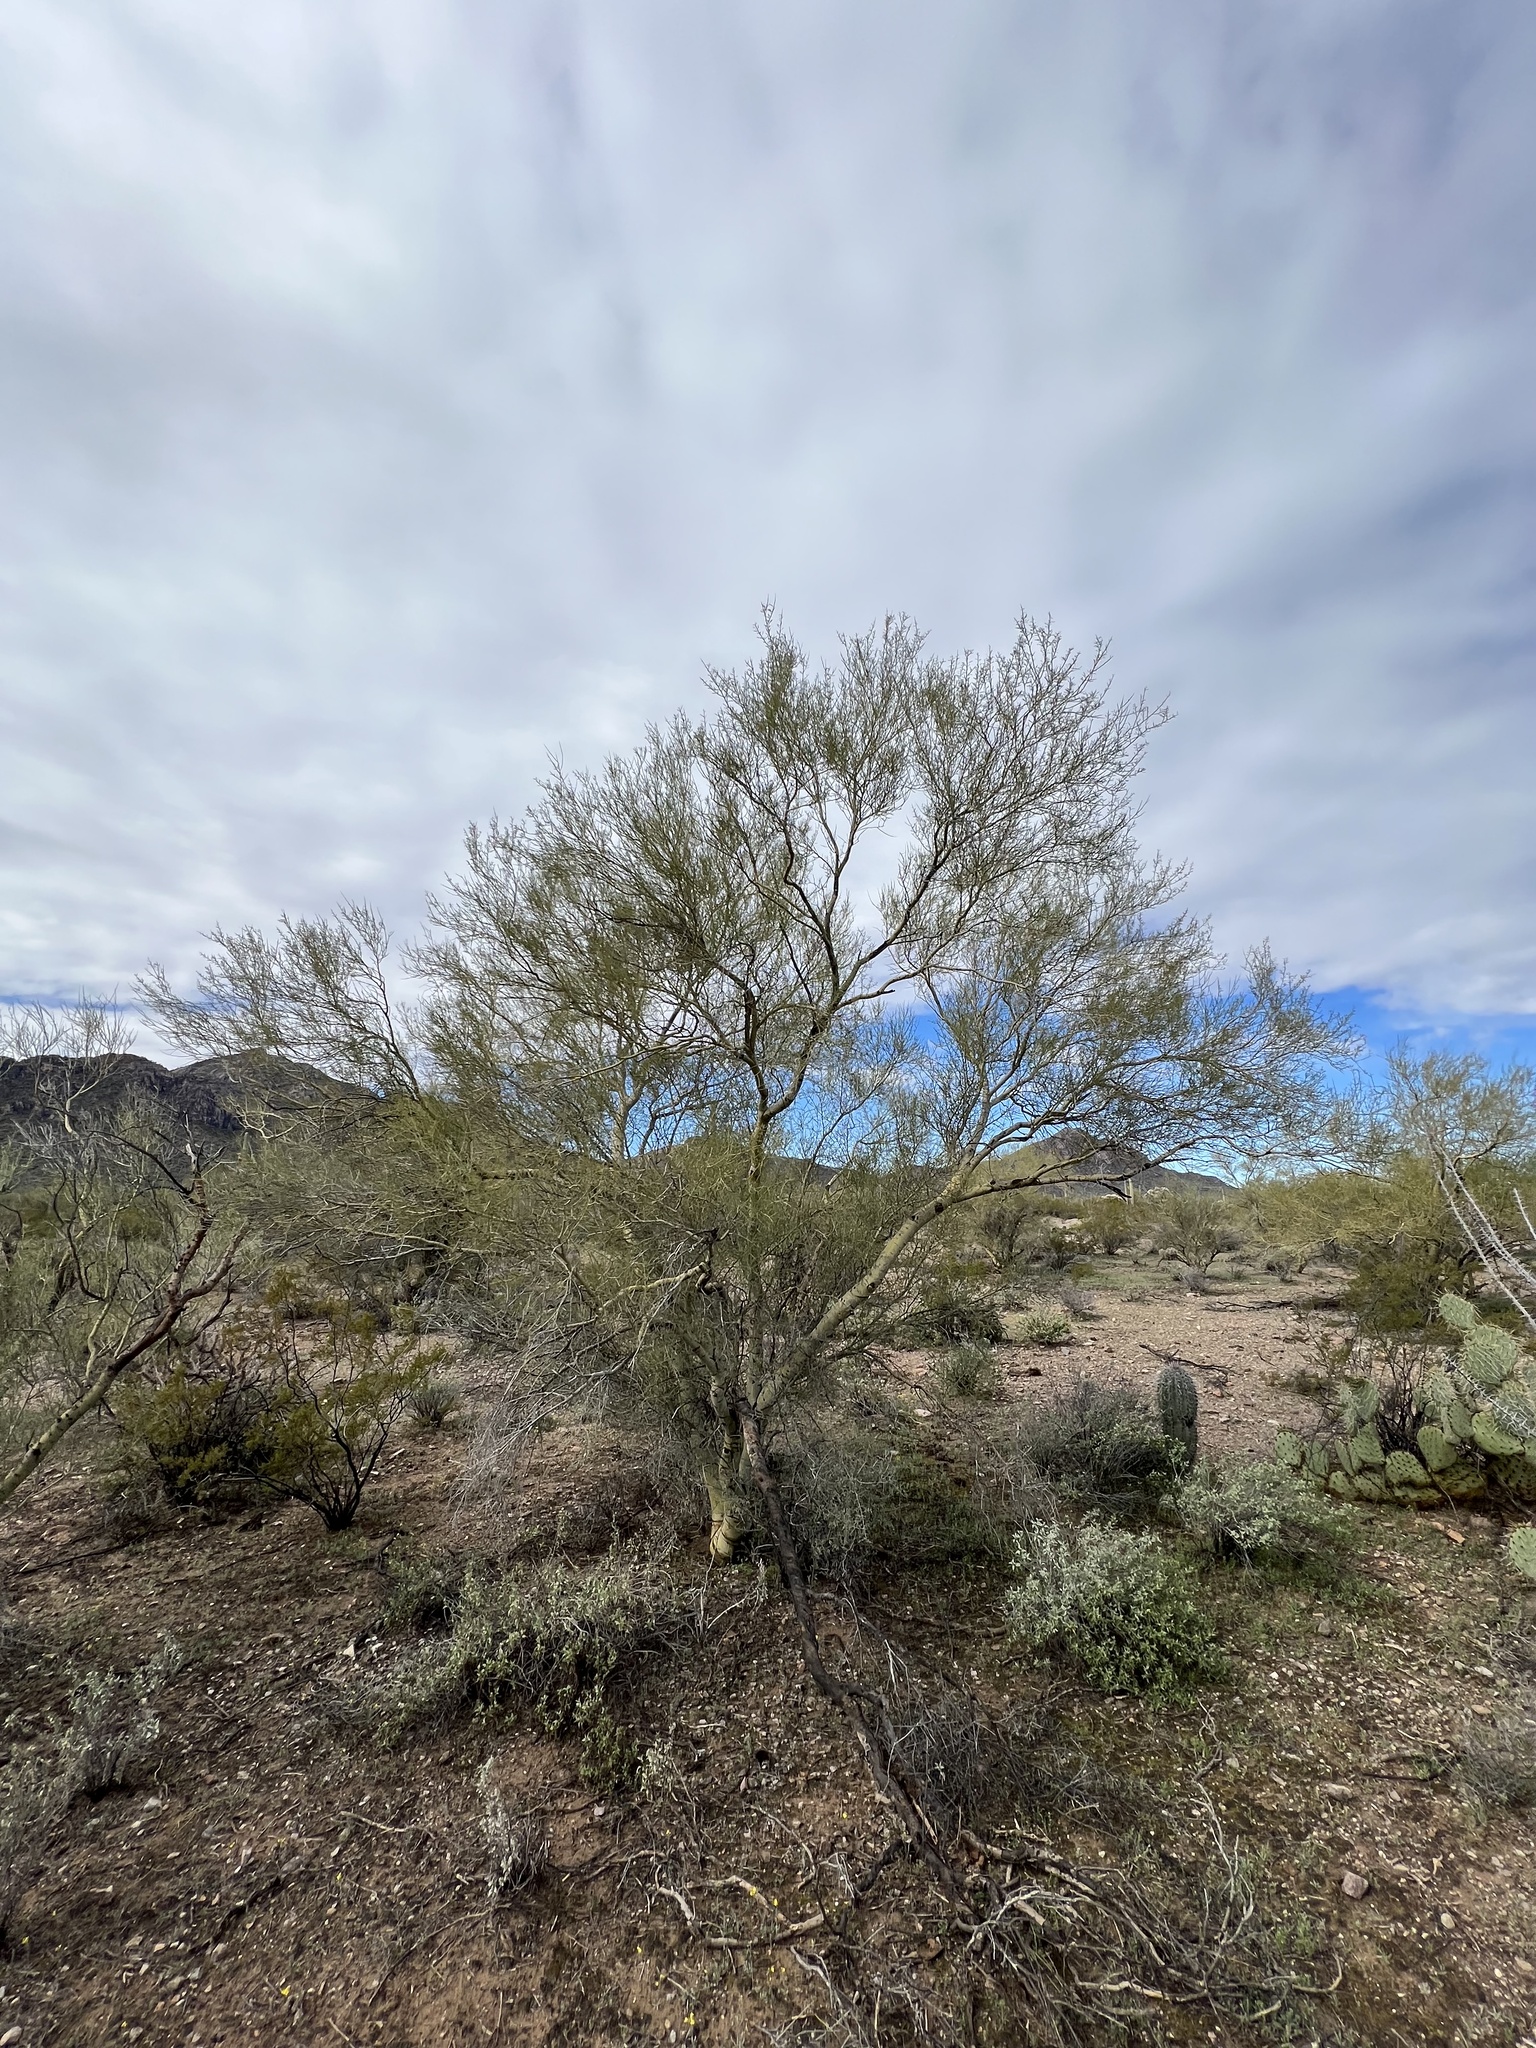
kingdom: Plantae
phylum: Tracheophyta
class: Magnoliopsida
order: Fabales
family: Fabaceae
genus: Parkinsonia
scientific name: Parkinsonia microphylla
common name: Yellow paloverde
